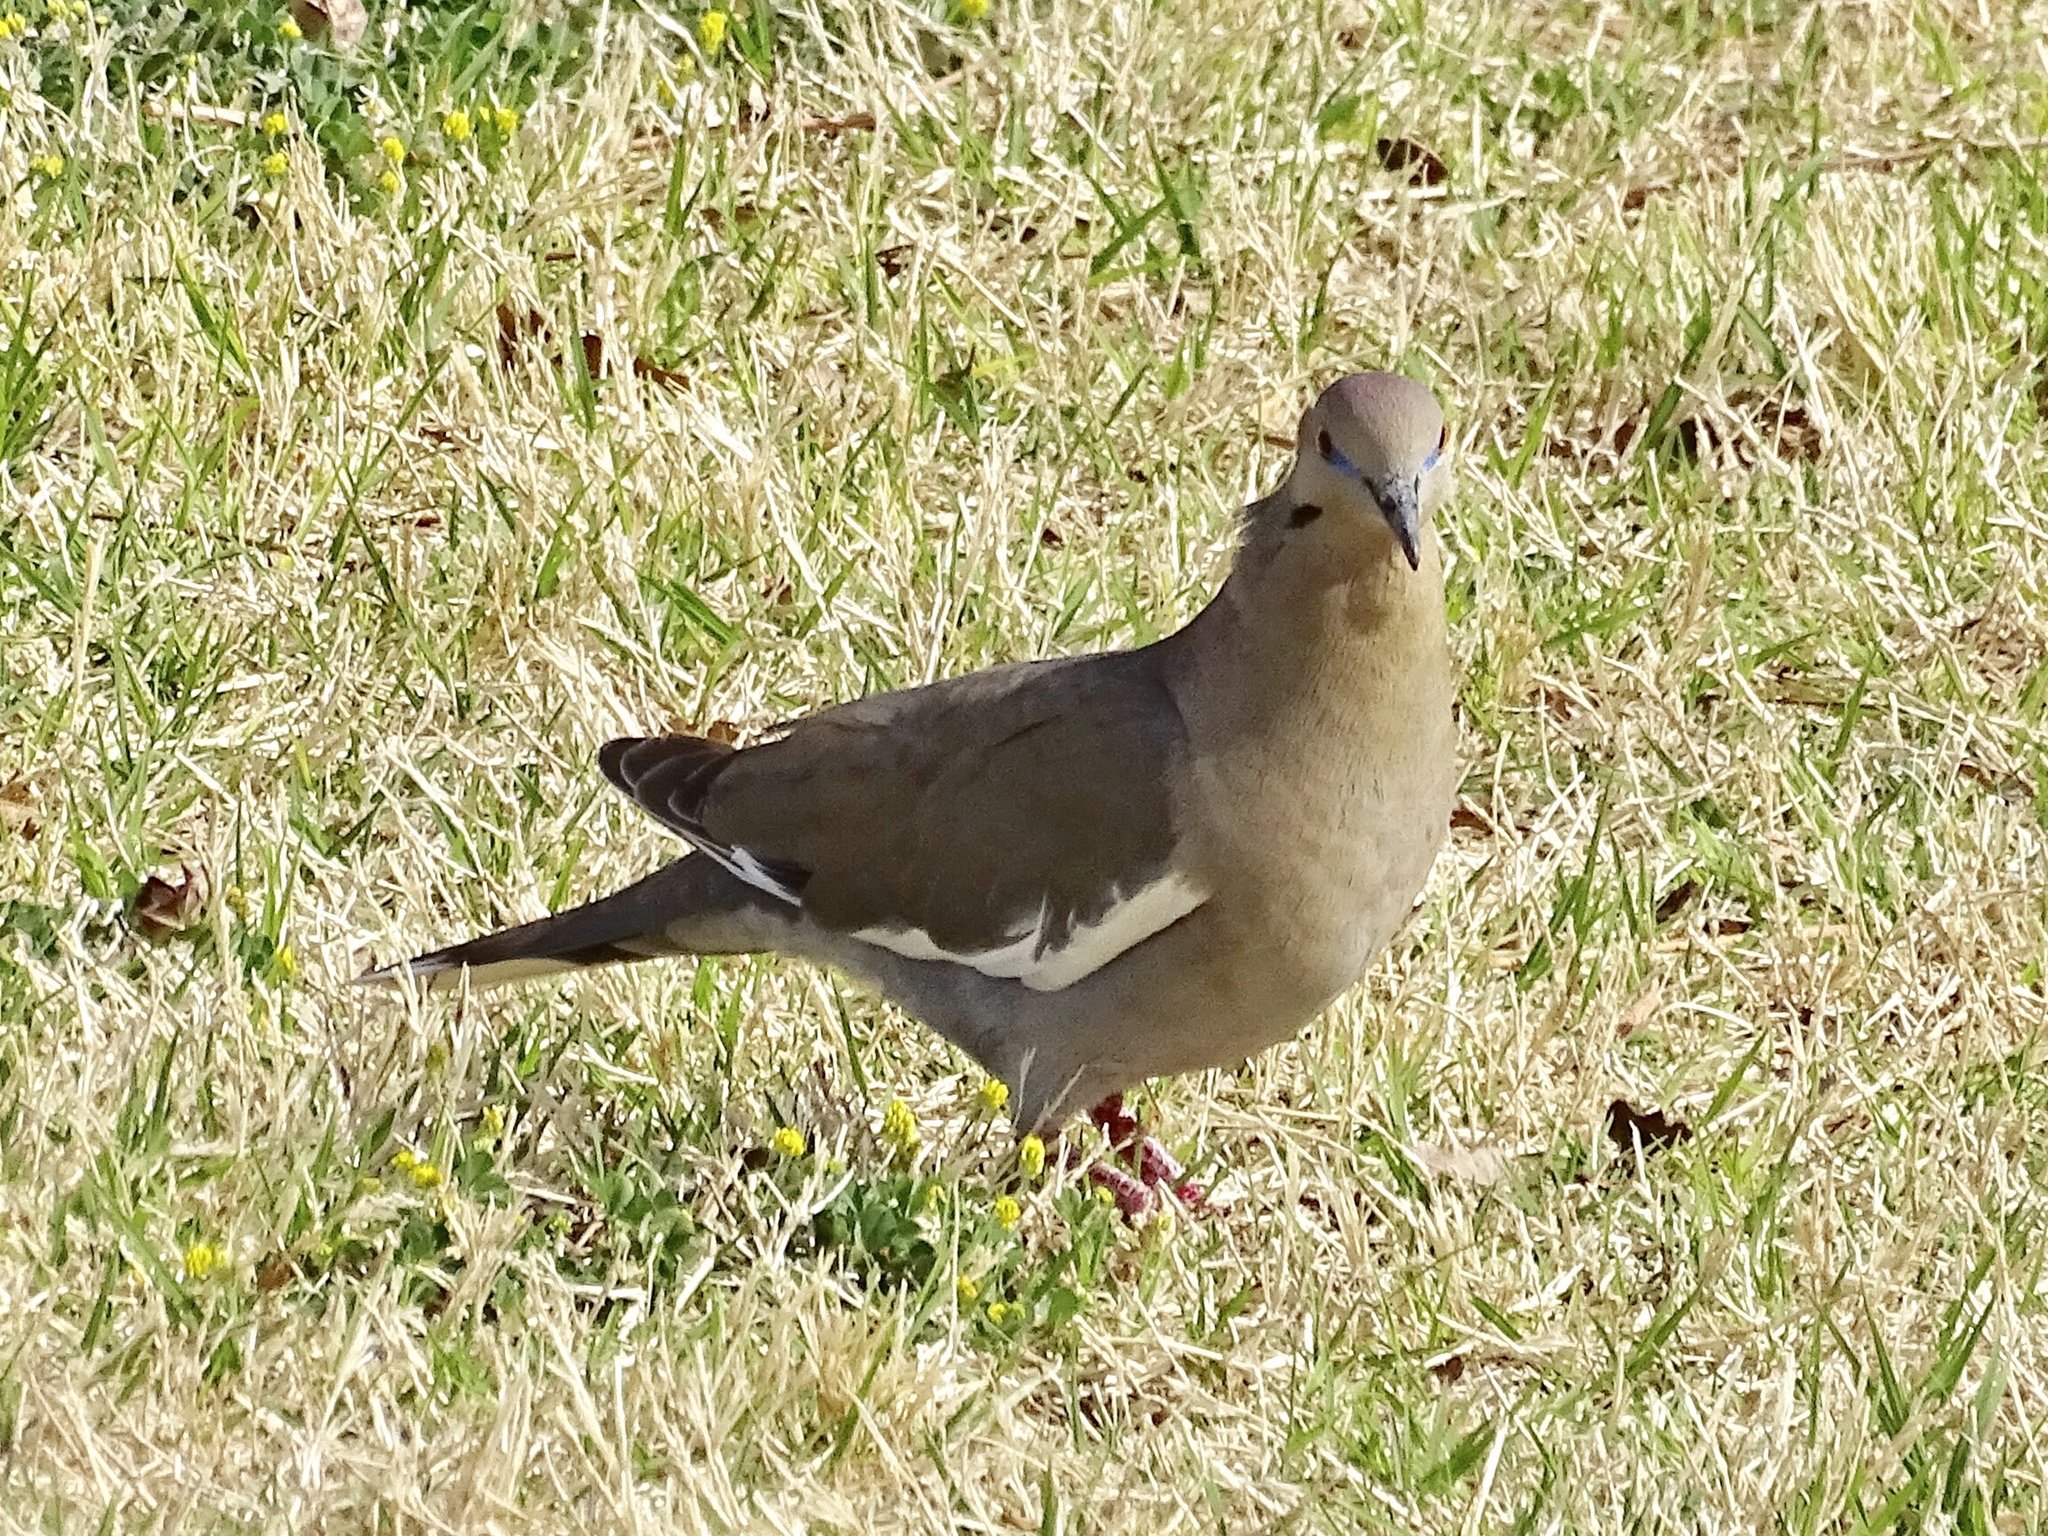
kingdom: Animalia
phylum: Chordata
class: Aves
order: Columbiformes
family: Columbidae
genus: Zenaida
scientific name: Zenaida asiatica
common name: White-winged dove
